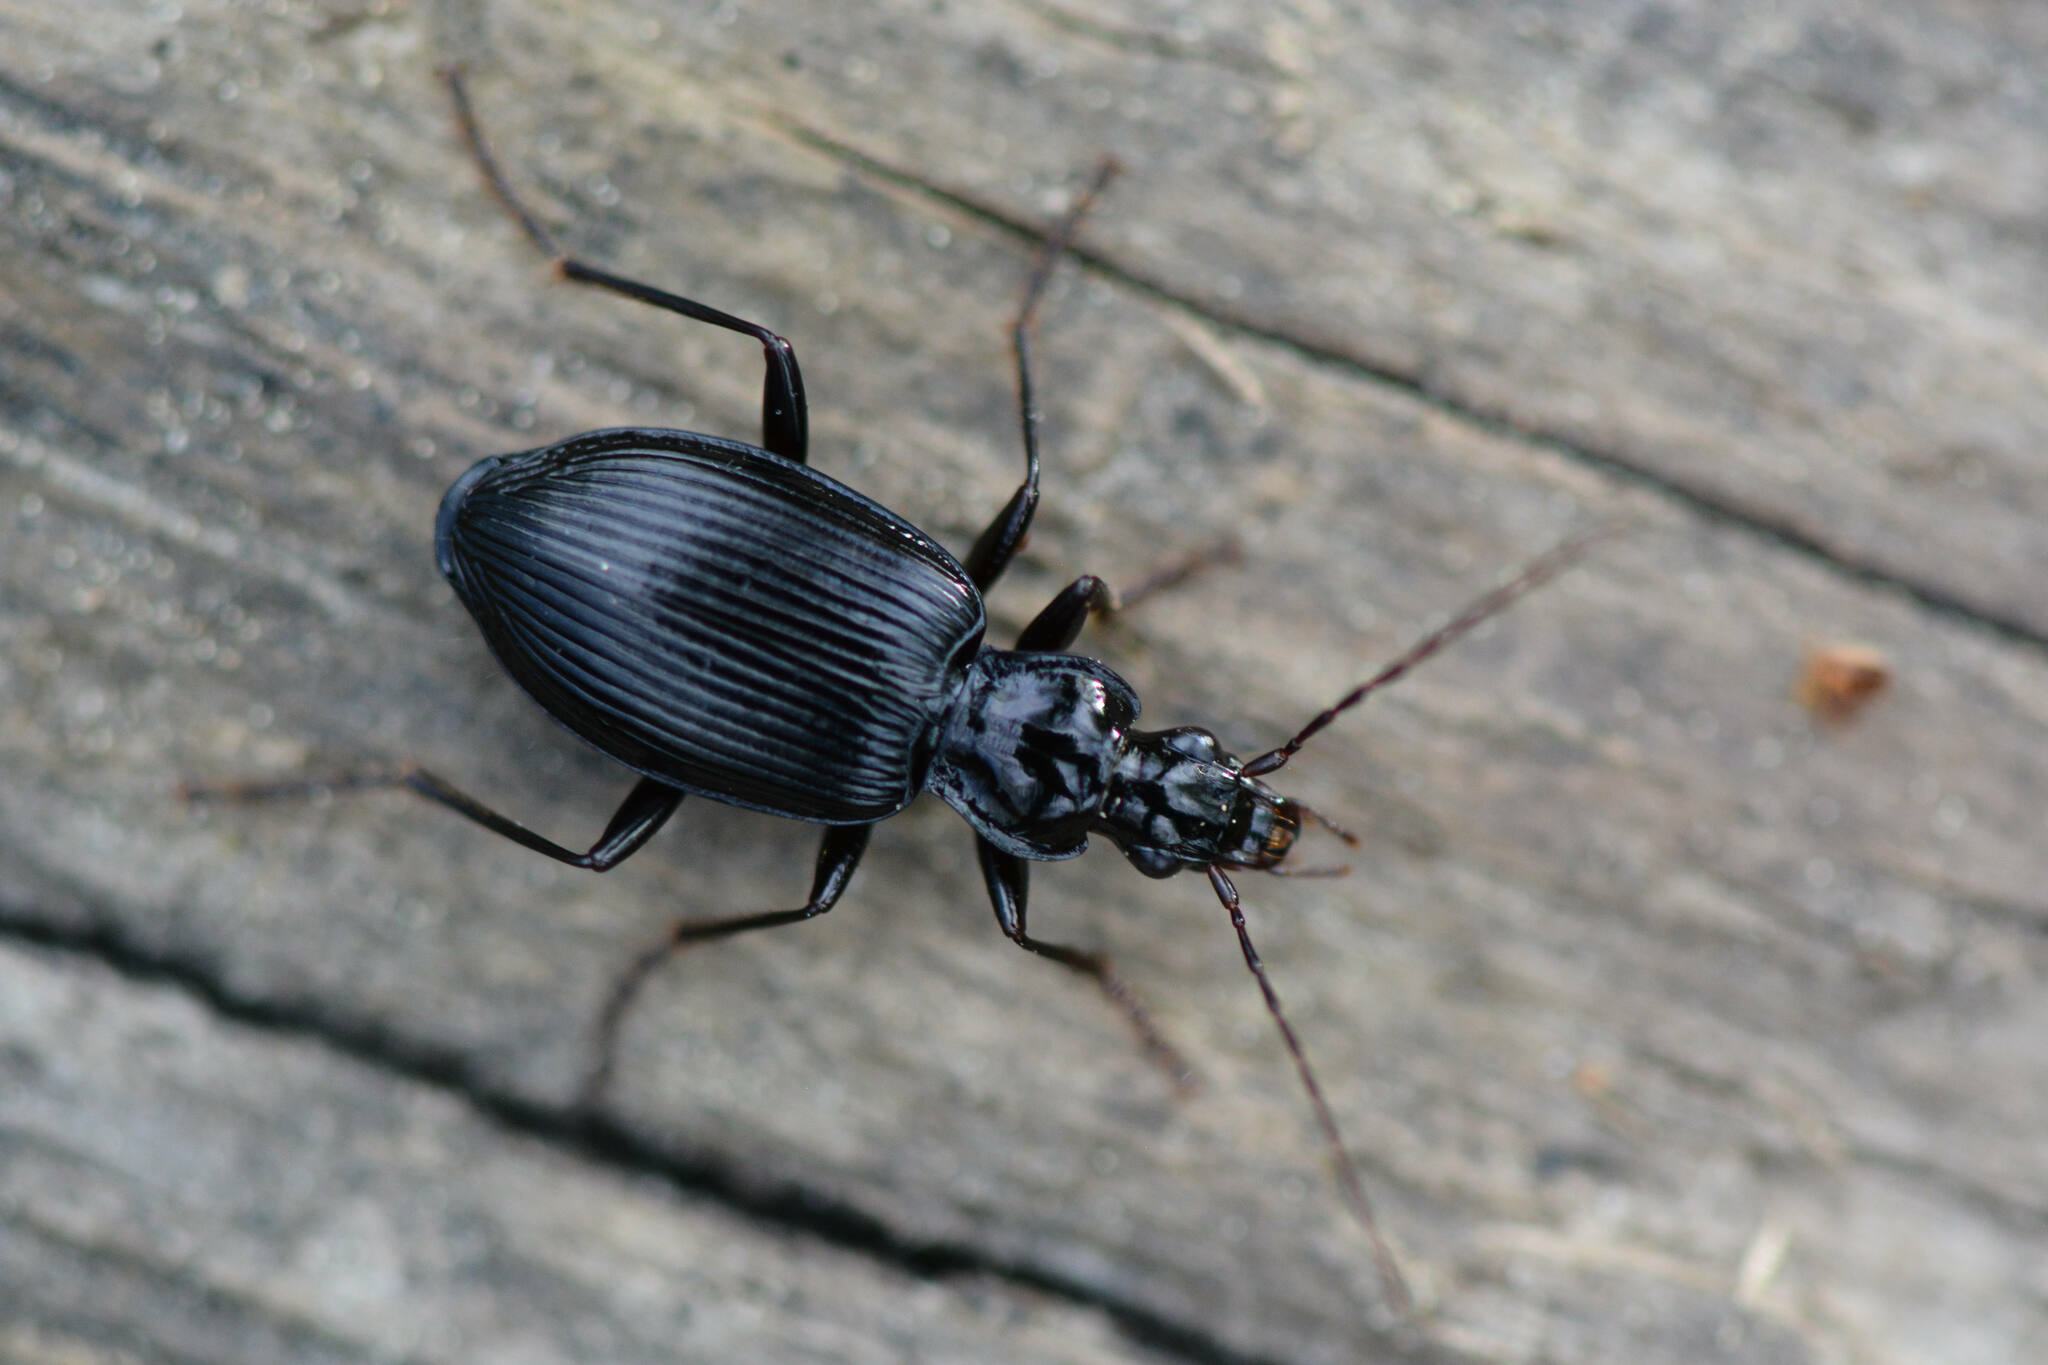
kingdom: Animalia
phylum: Arthropoda
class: Insecta
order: Coleoptera
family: Carabidae
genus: Platynus
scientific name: Platynus assimilis
